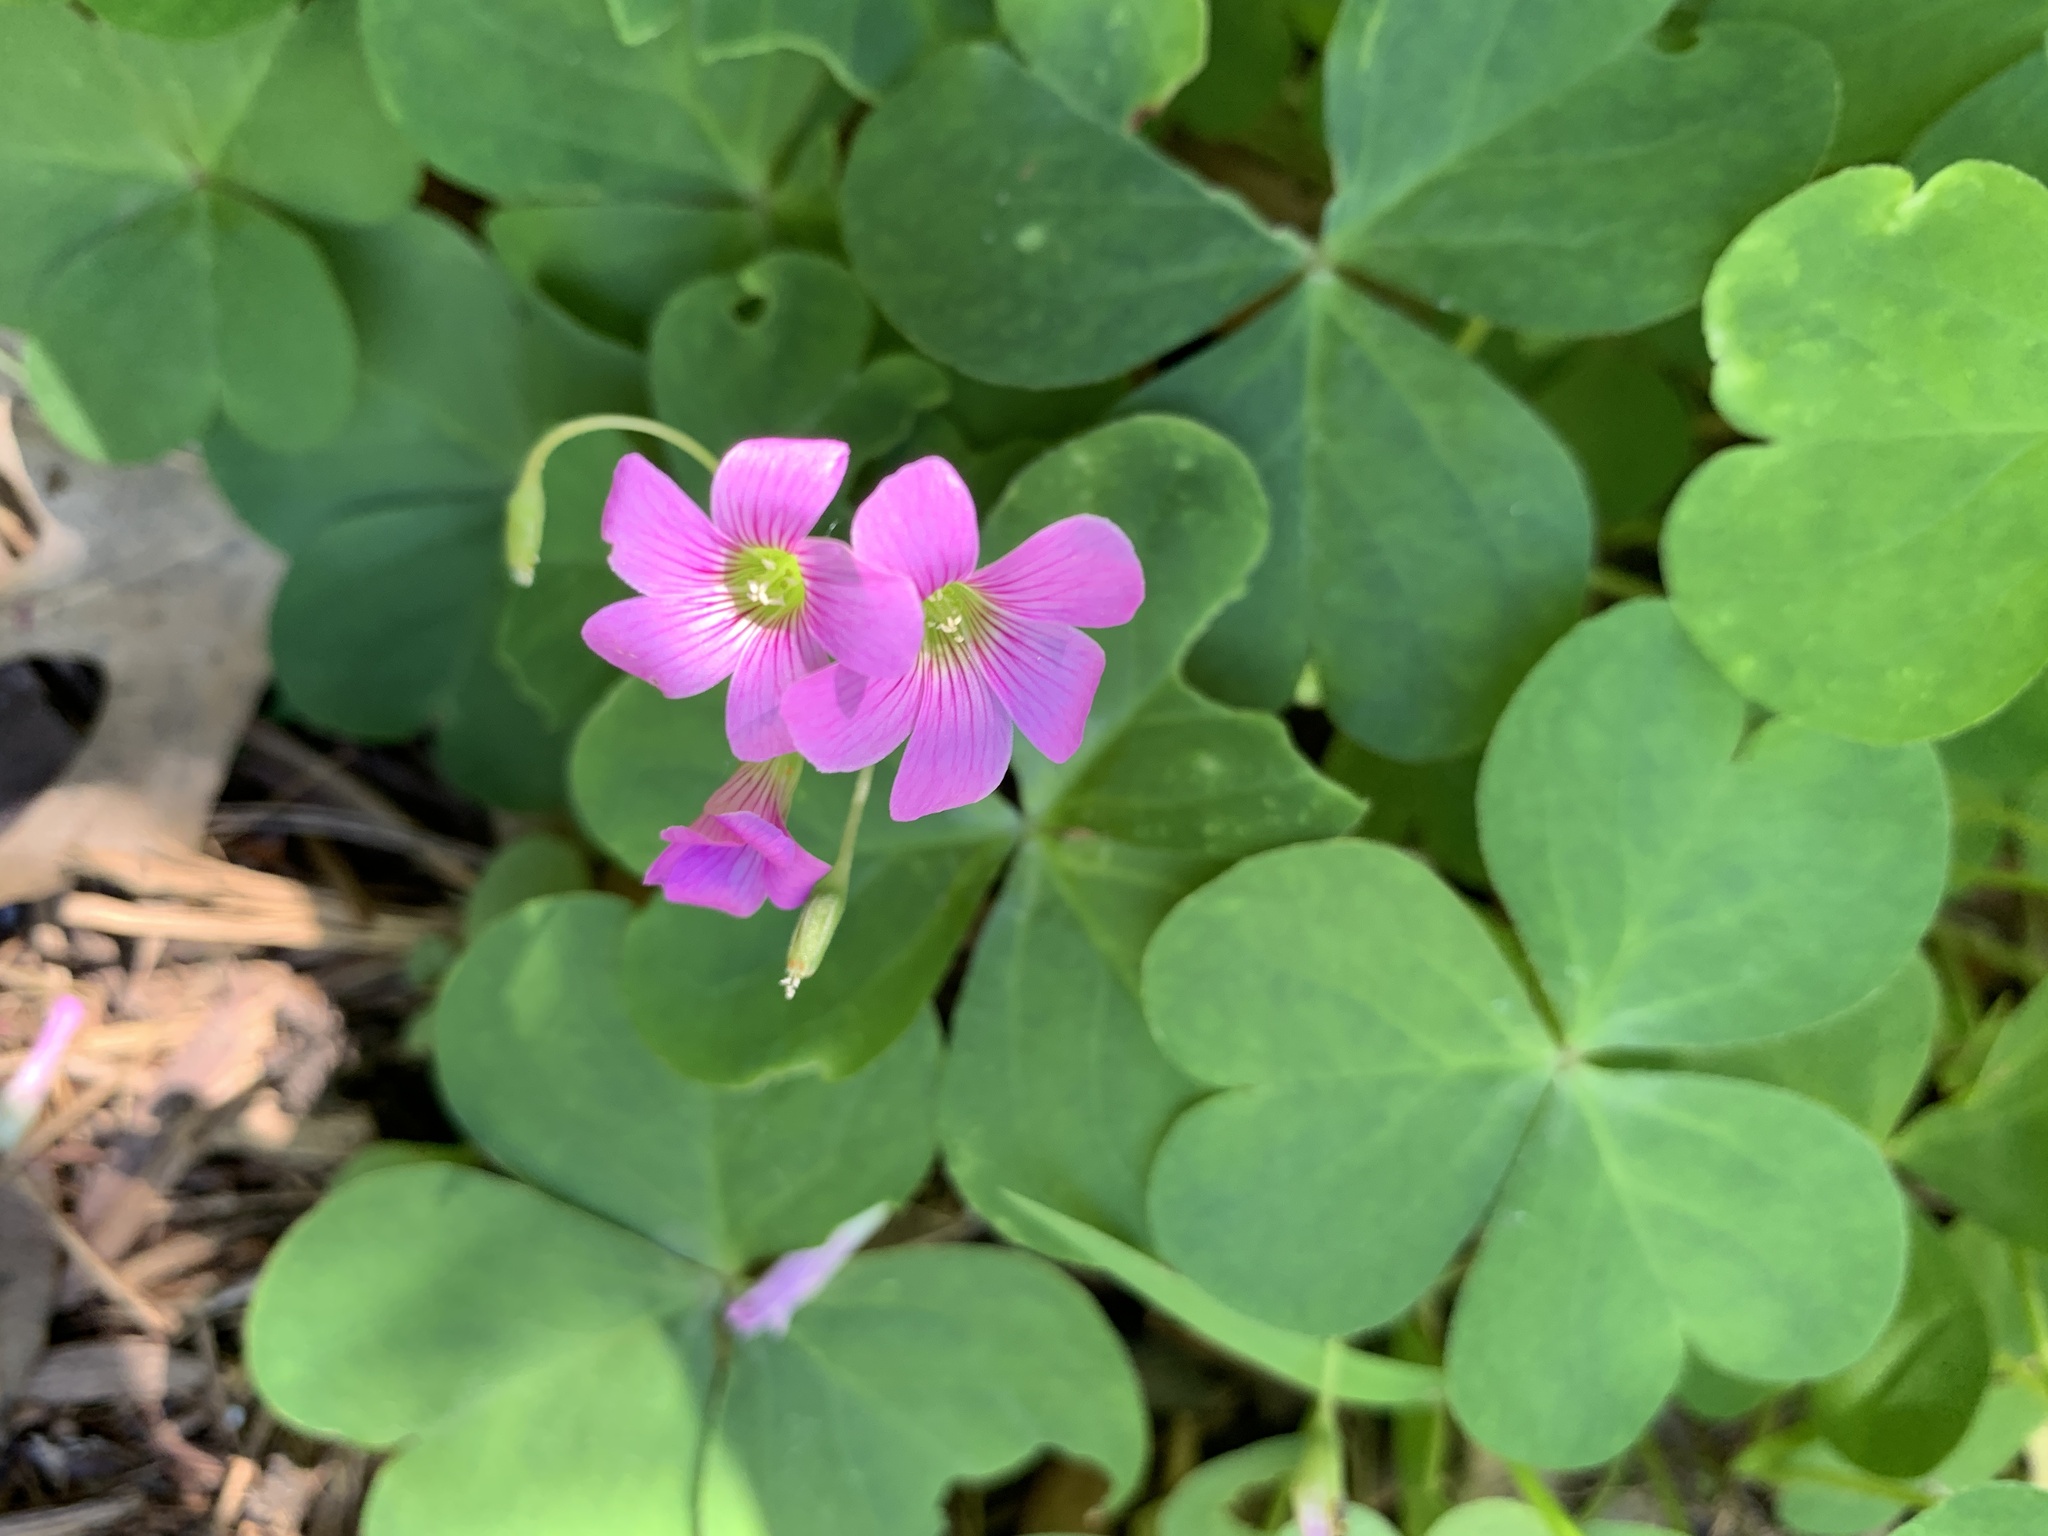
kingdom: Plantae
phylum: Tracheophyta
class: Magnoliopsida
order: Oxalidales
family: Oxalidaceae
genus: Oxalis
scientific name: Oxalis debilis
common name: Large-flowered pink-sorrel
